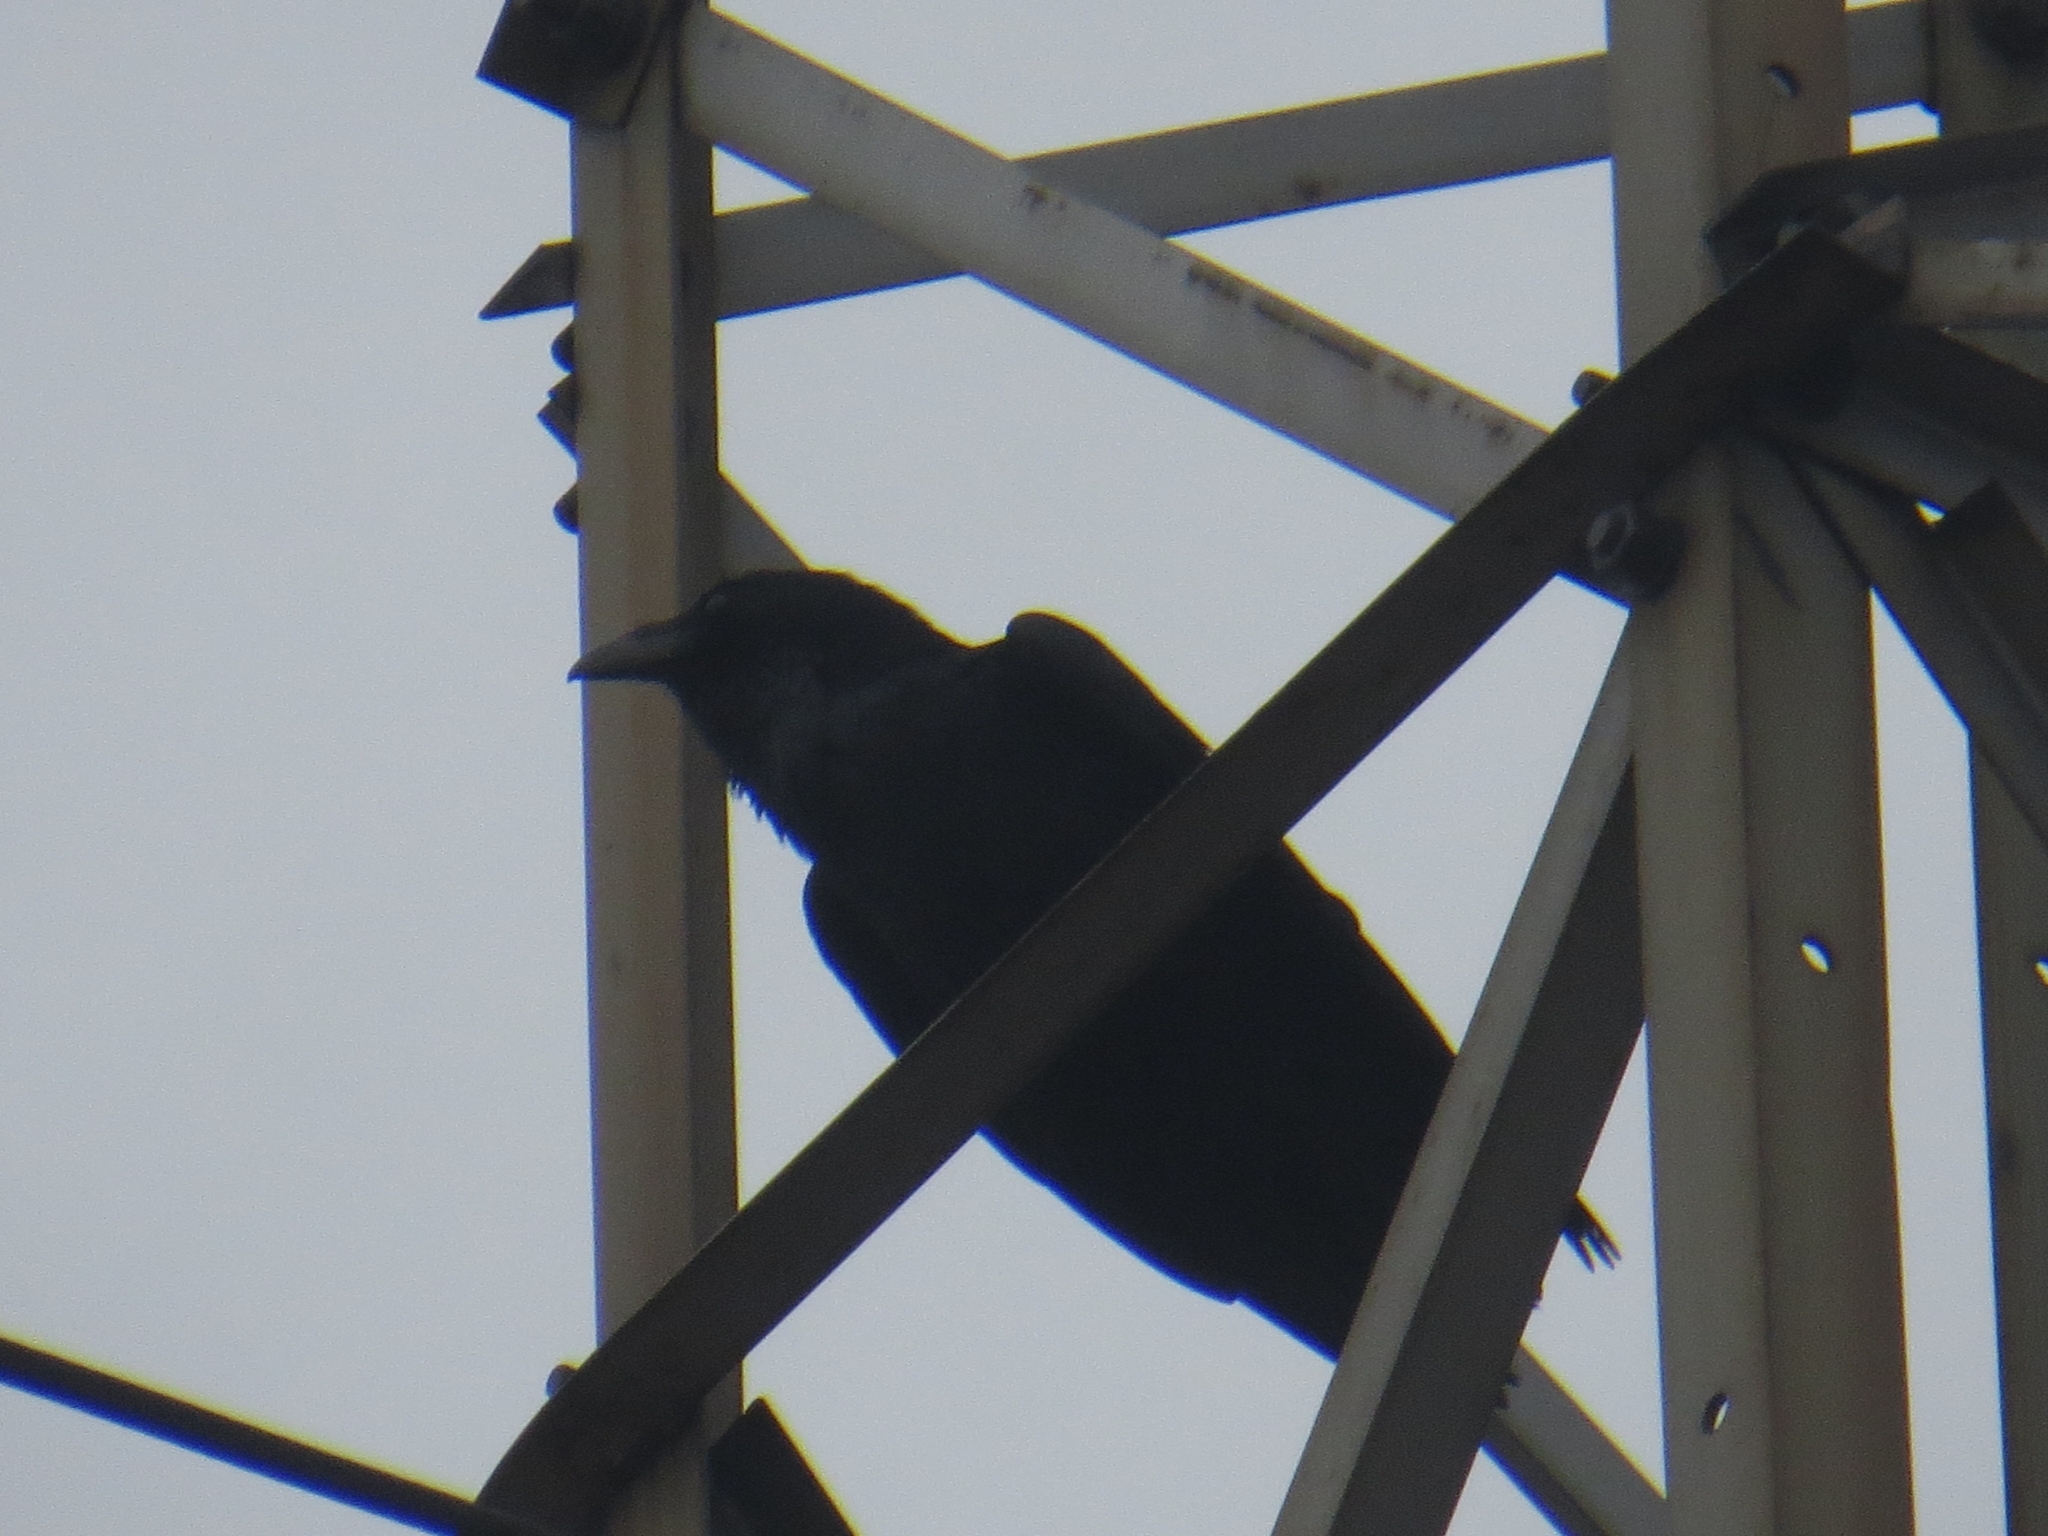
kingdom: Animalia
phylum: Chordata
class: Aves
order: Passeriformes
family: Corvidae
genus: Corvus
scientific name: Corvus corax
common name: Common raven
